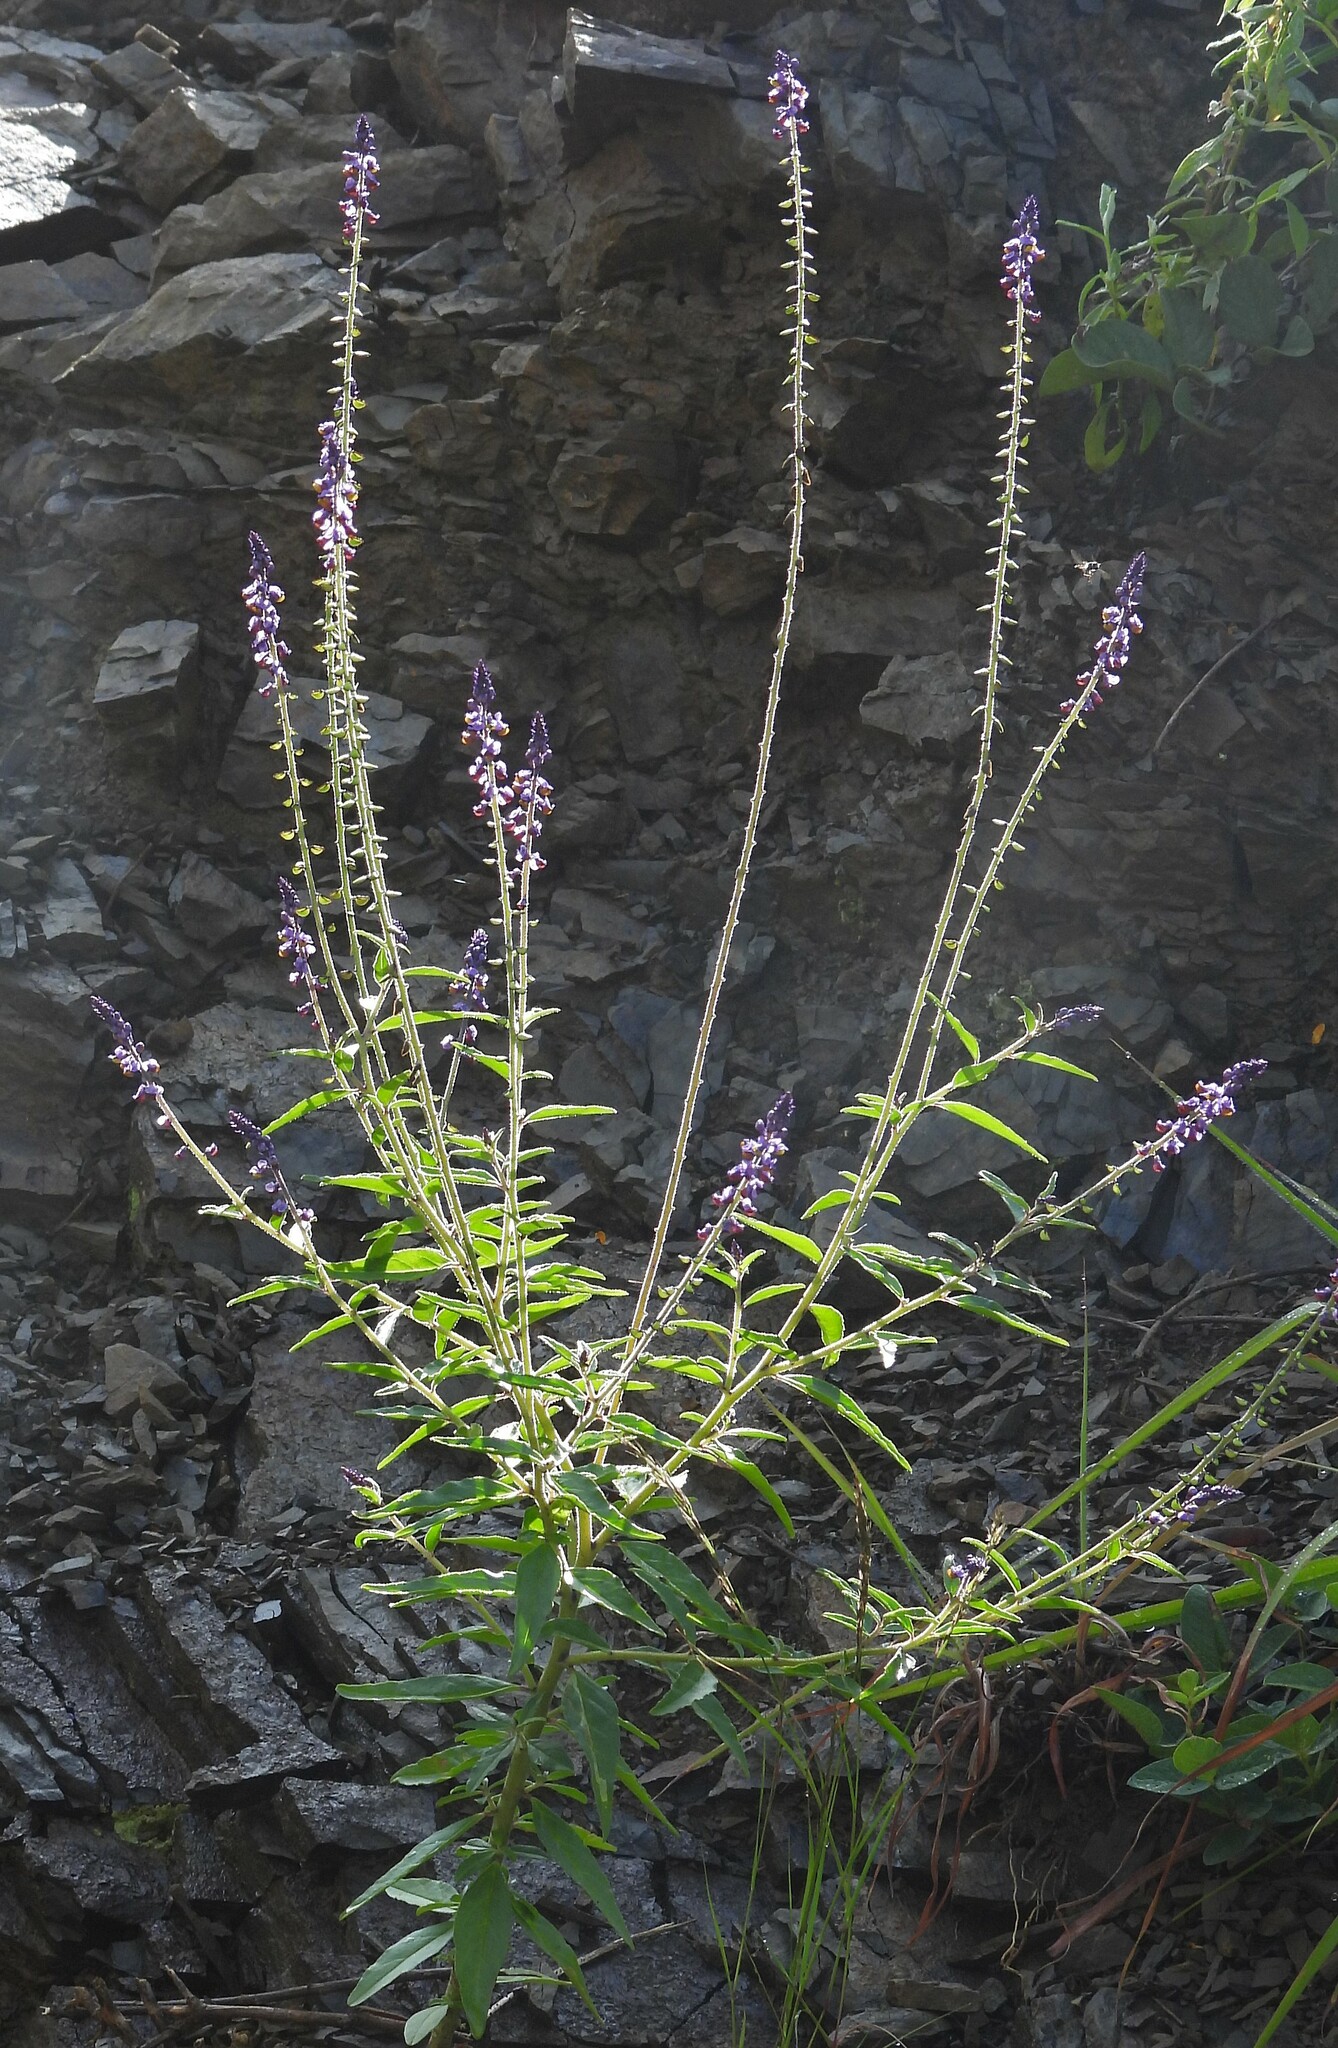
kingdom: Plantae
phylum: Tracheophyta
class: Magnoliopsida
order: Fabales
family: Polygalaceae
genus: Monnina
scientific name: Monnina wrightii
